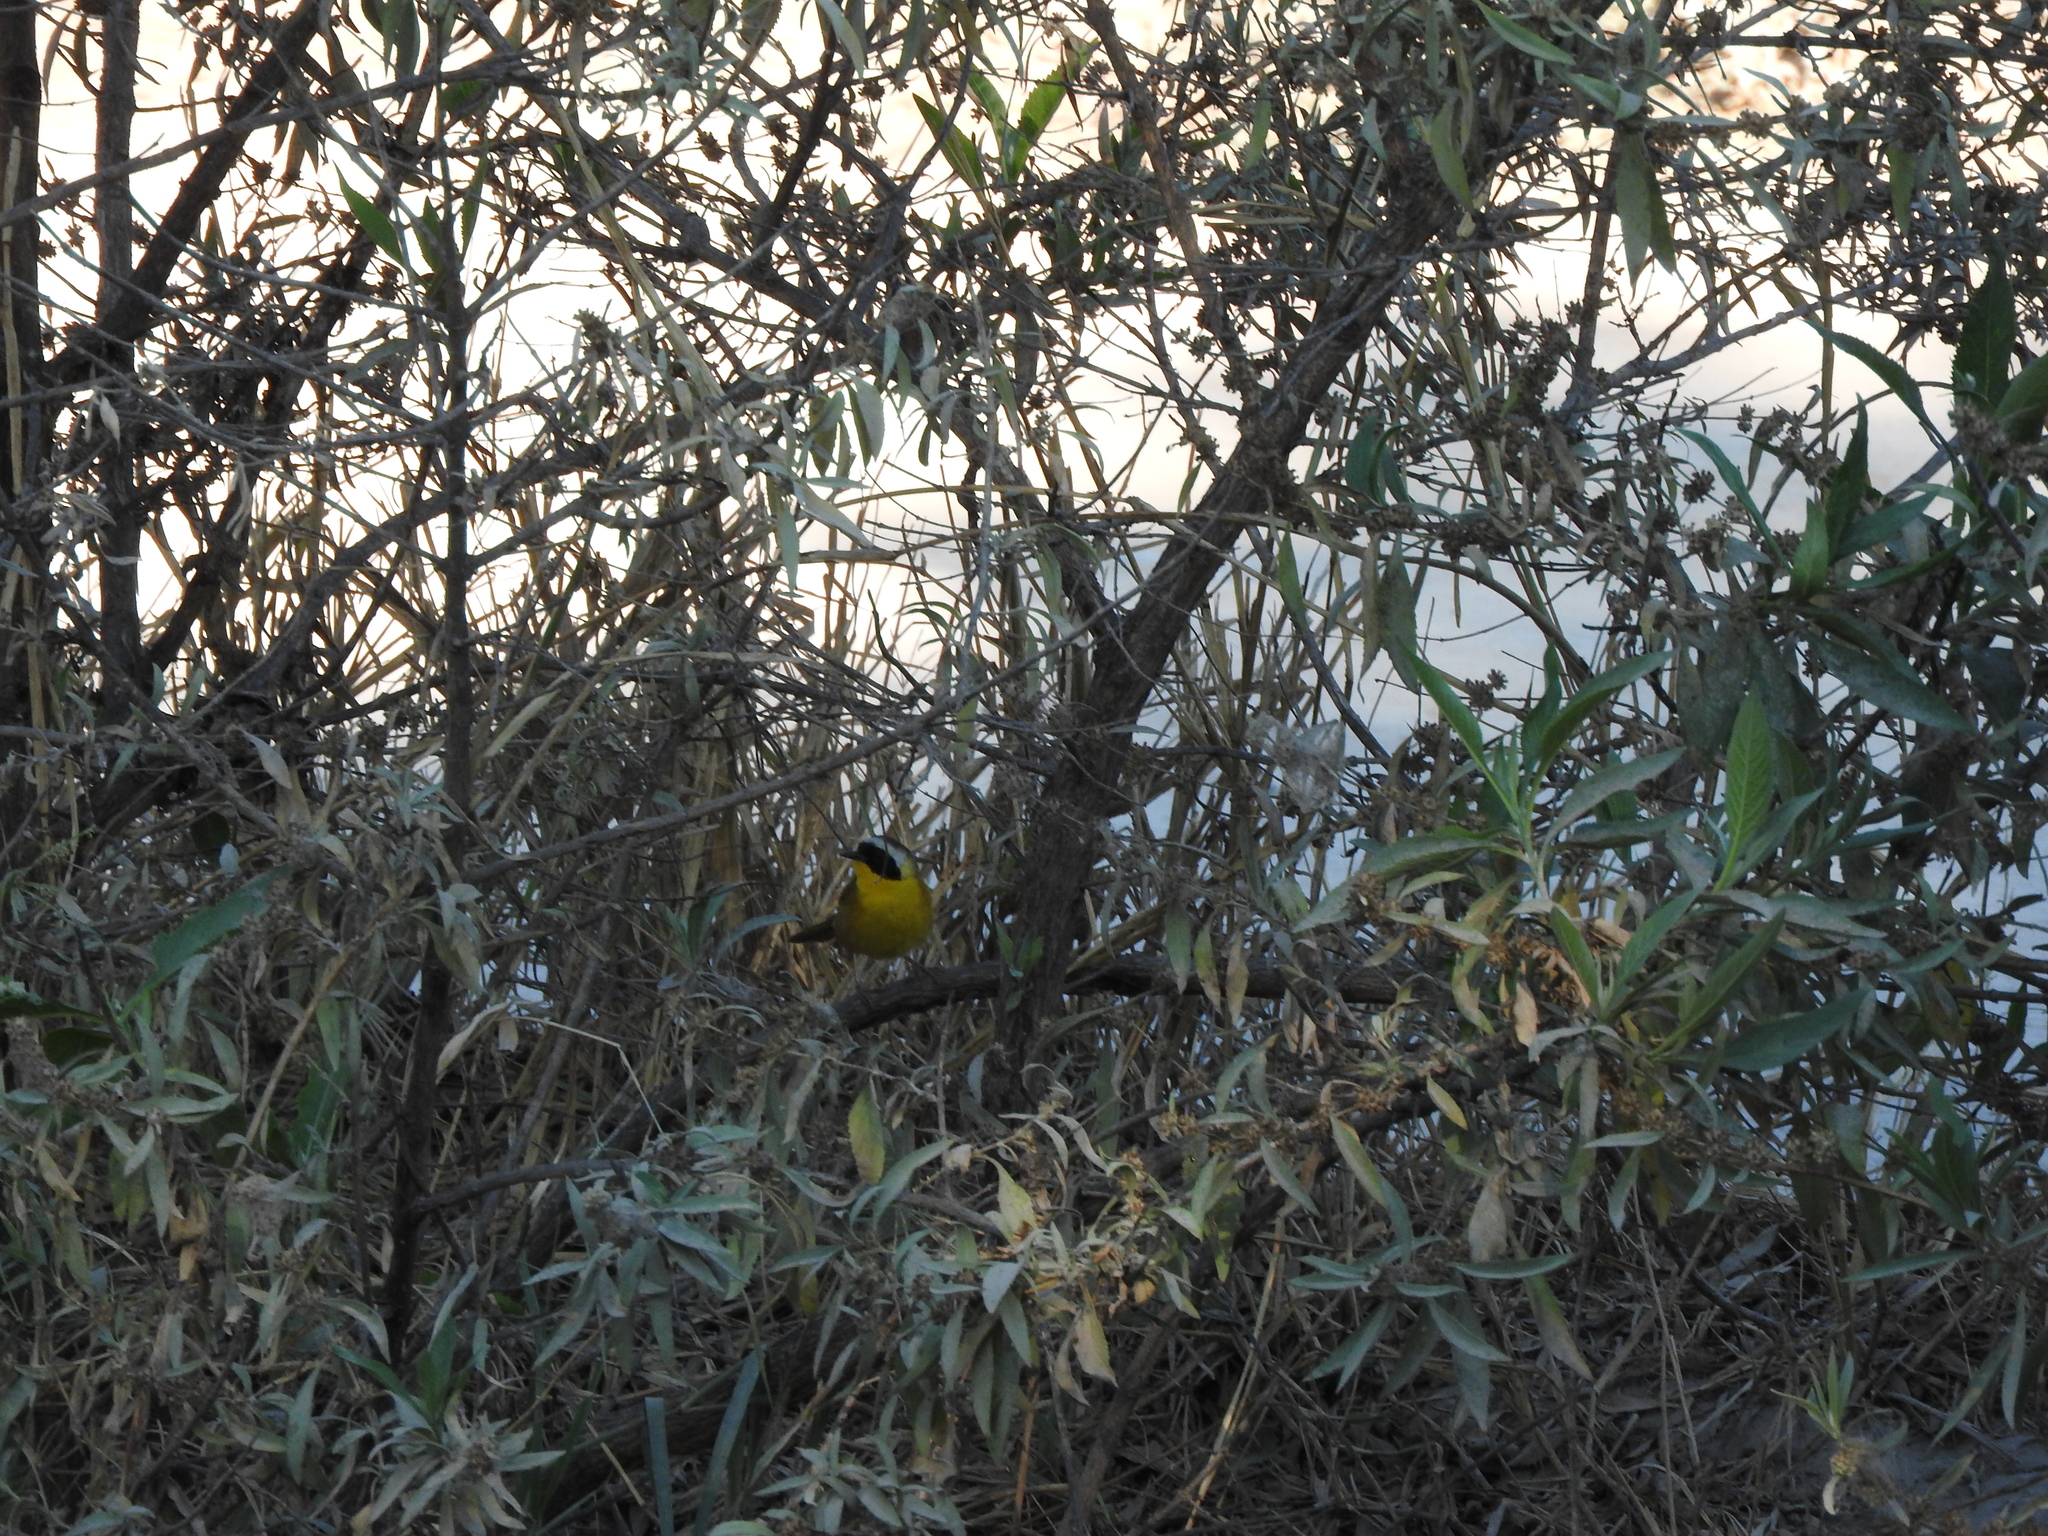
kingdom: Animalia
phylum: Chordata
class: Aves
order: Passeriformes
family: Parulidae
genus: Geothlypis
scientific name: Geothlypis trichas
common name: Common yellowthroat
